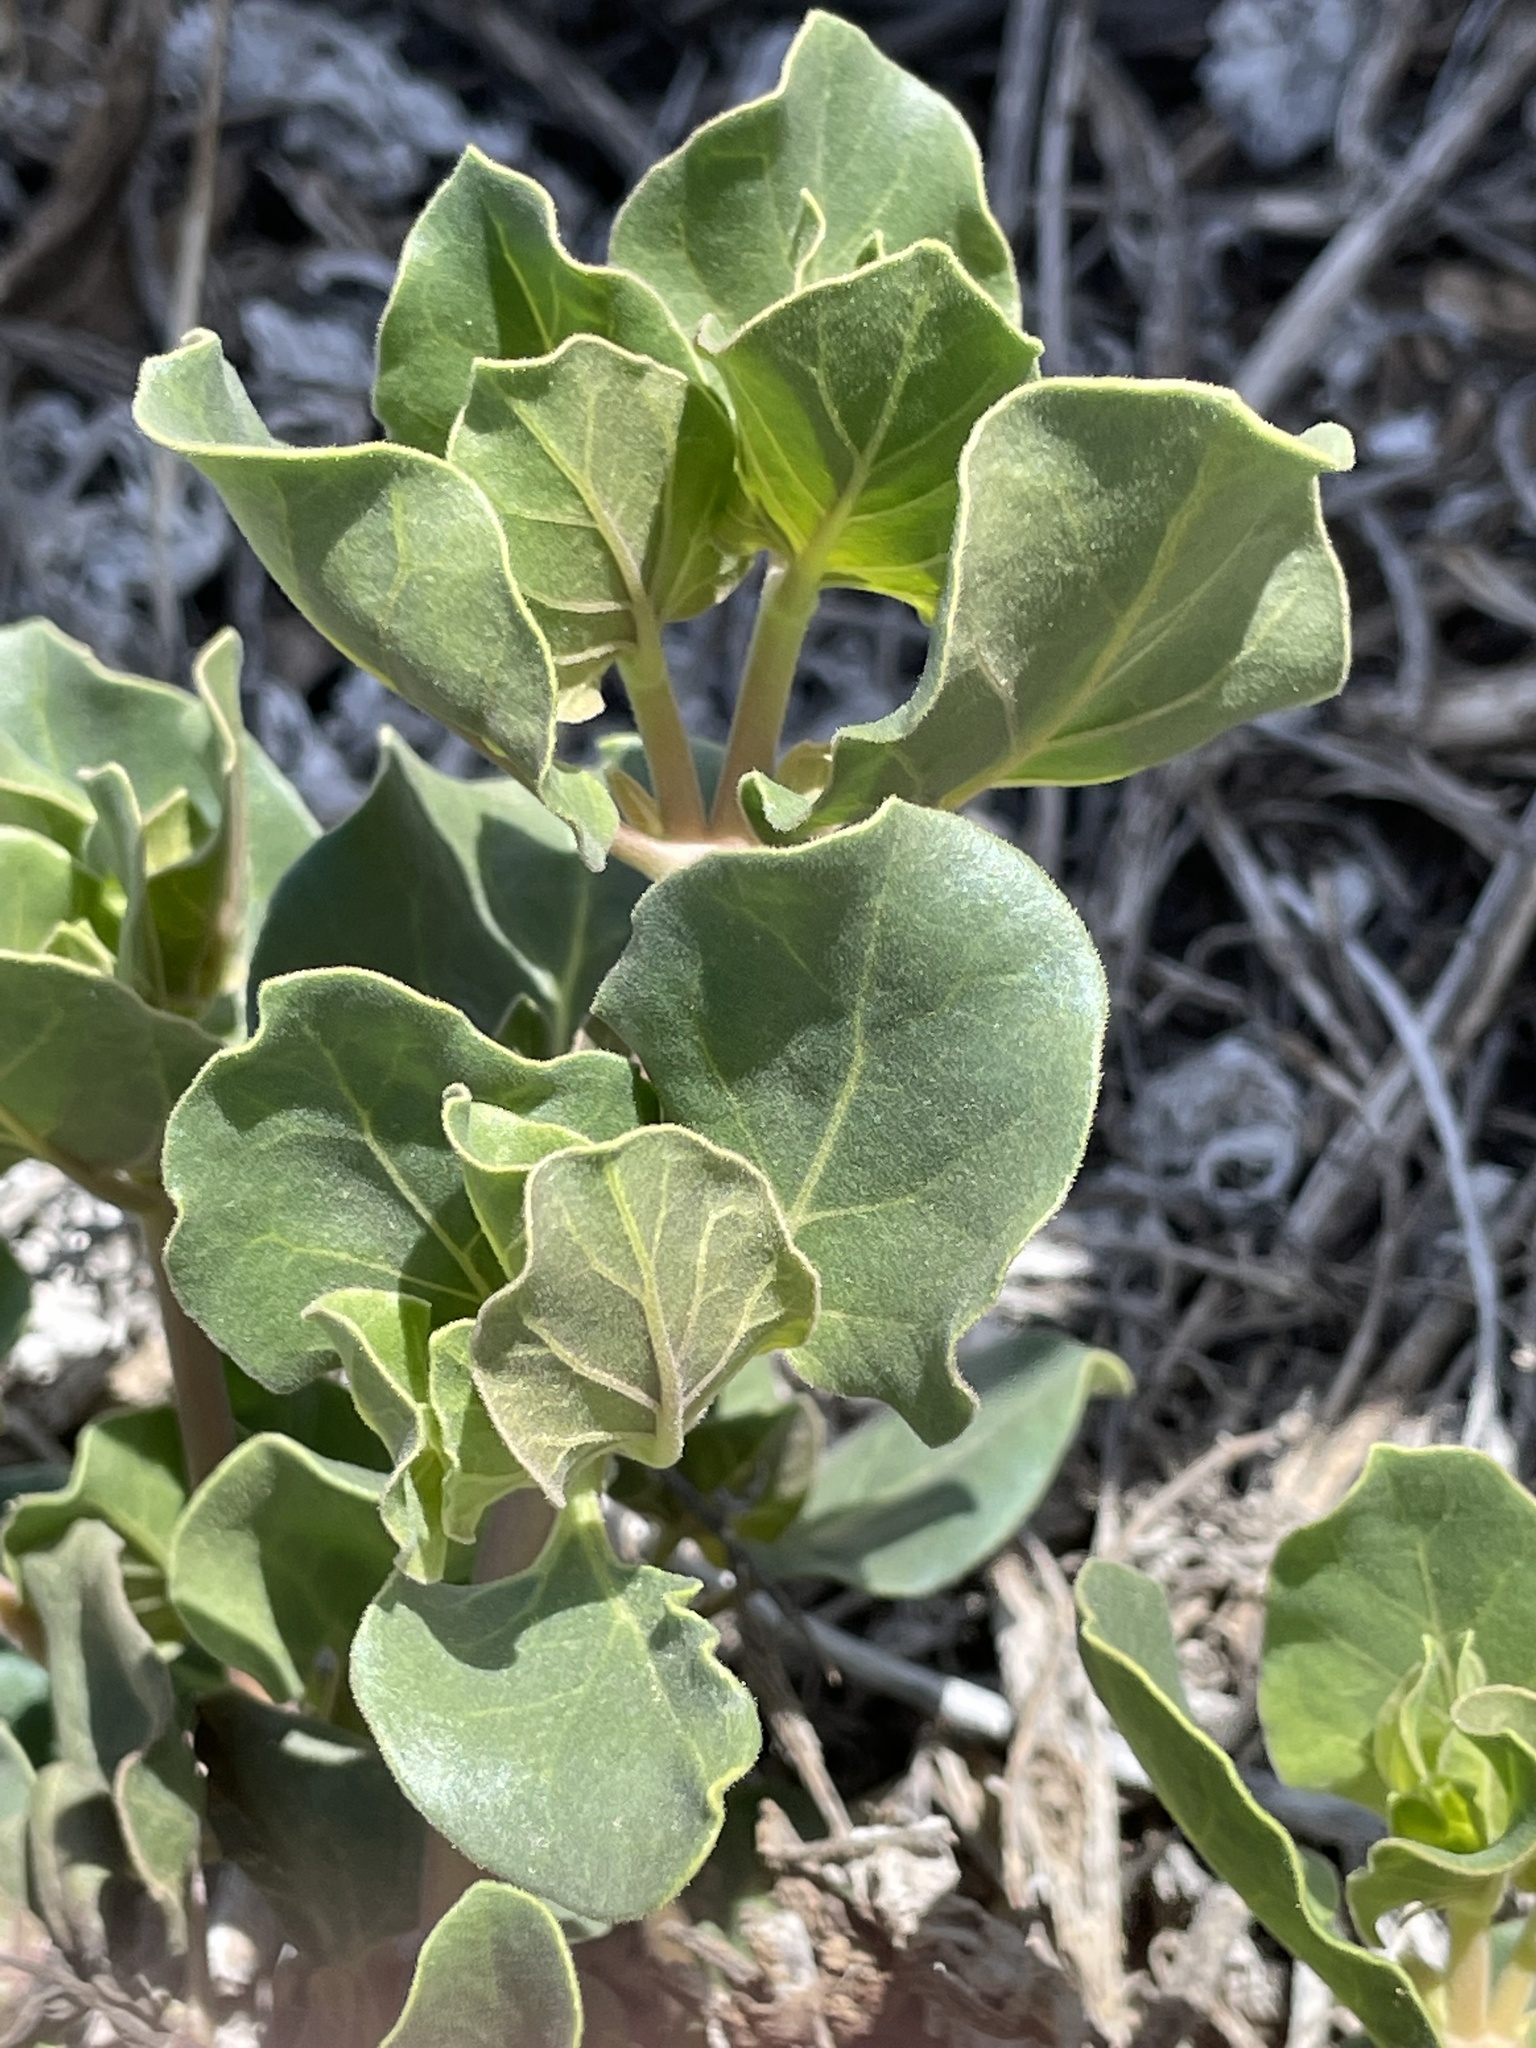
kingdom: Plantae
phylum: Tracheophyta
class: Magnoliopsida
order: Caryophyllales
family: Nyctaginaceae
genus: Mirabilis
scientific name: Mirabilis multiflora
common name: Froebel's four-o'clock
